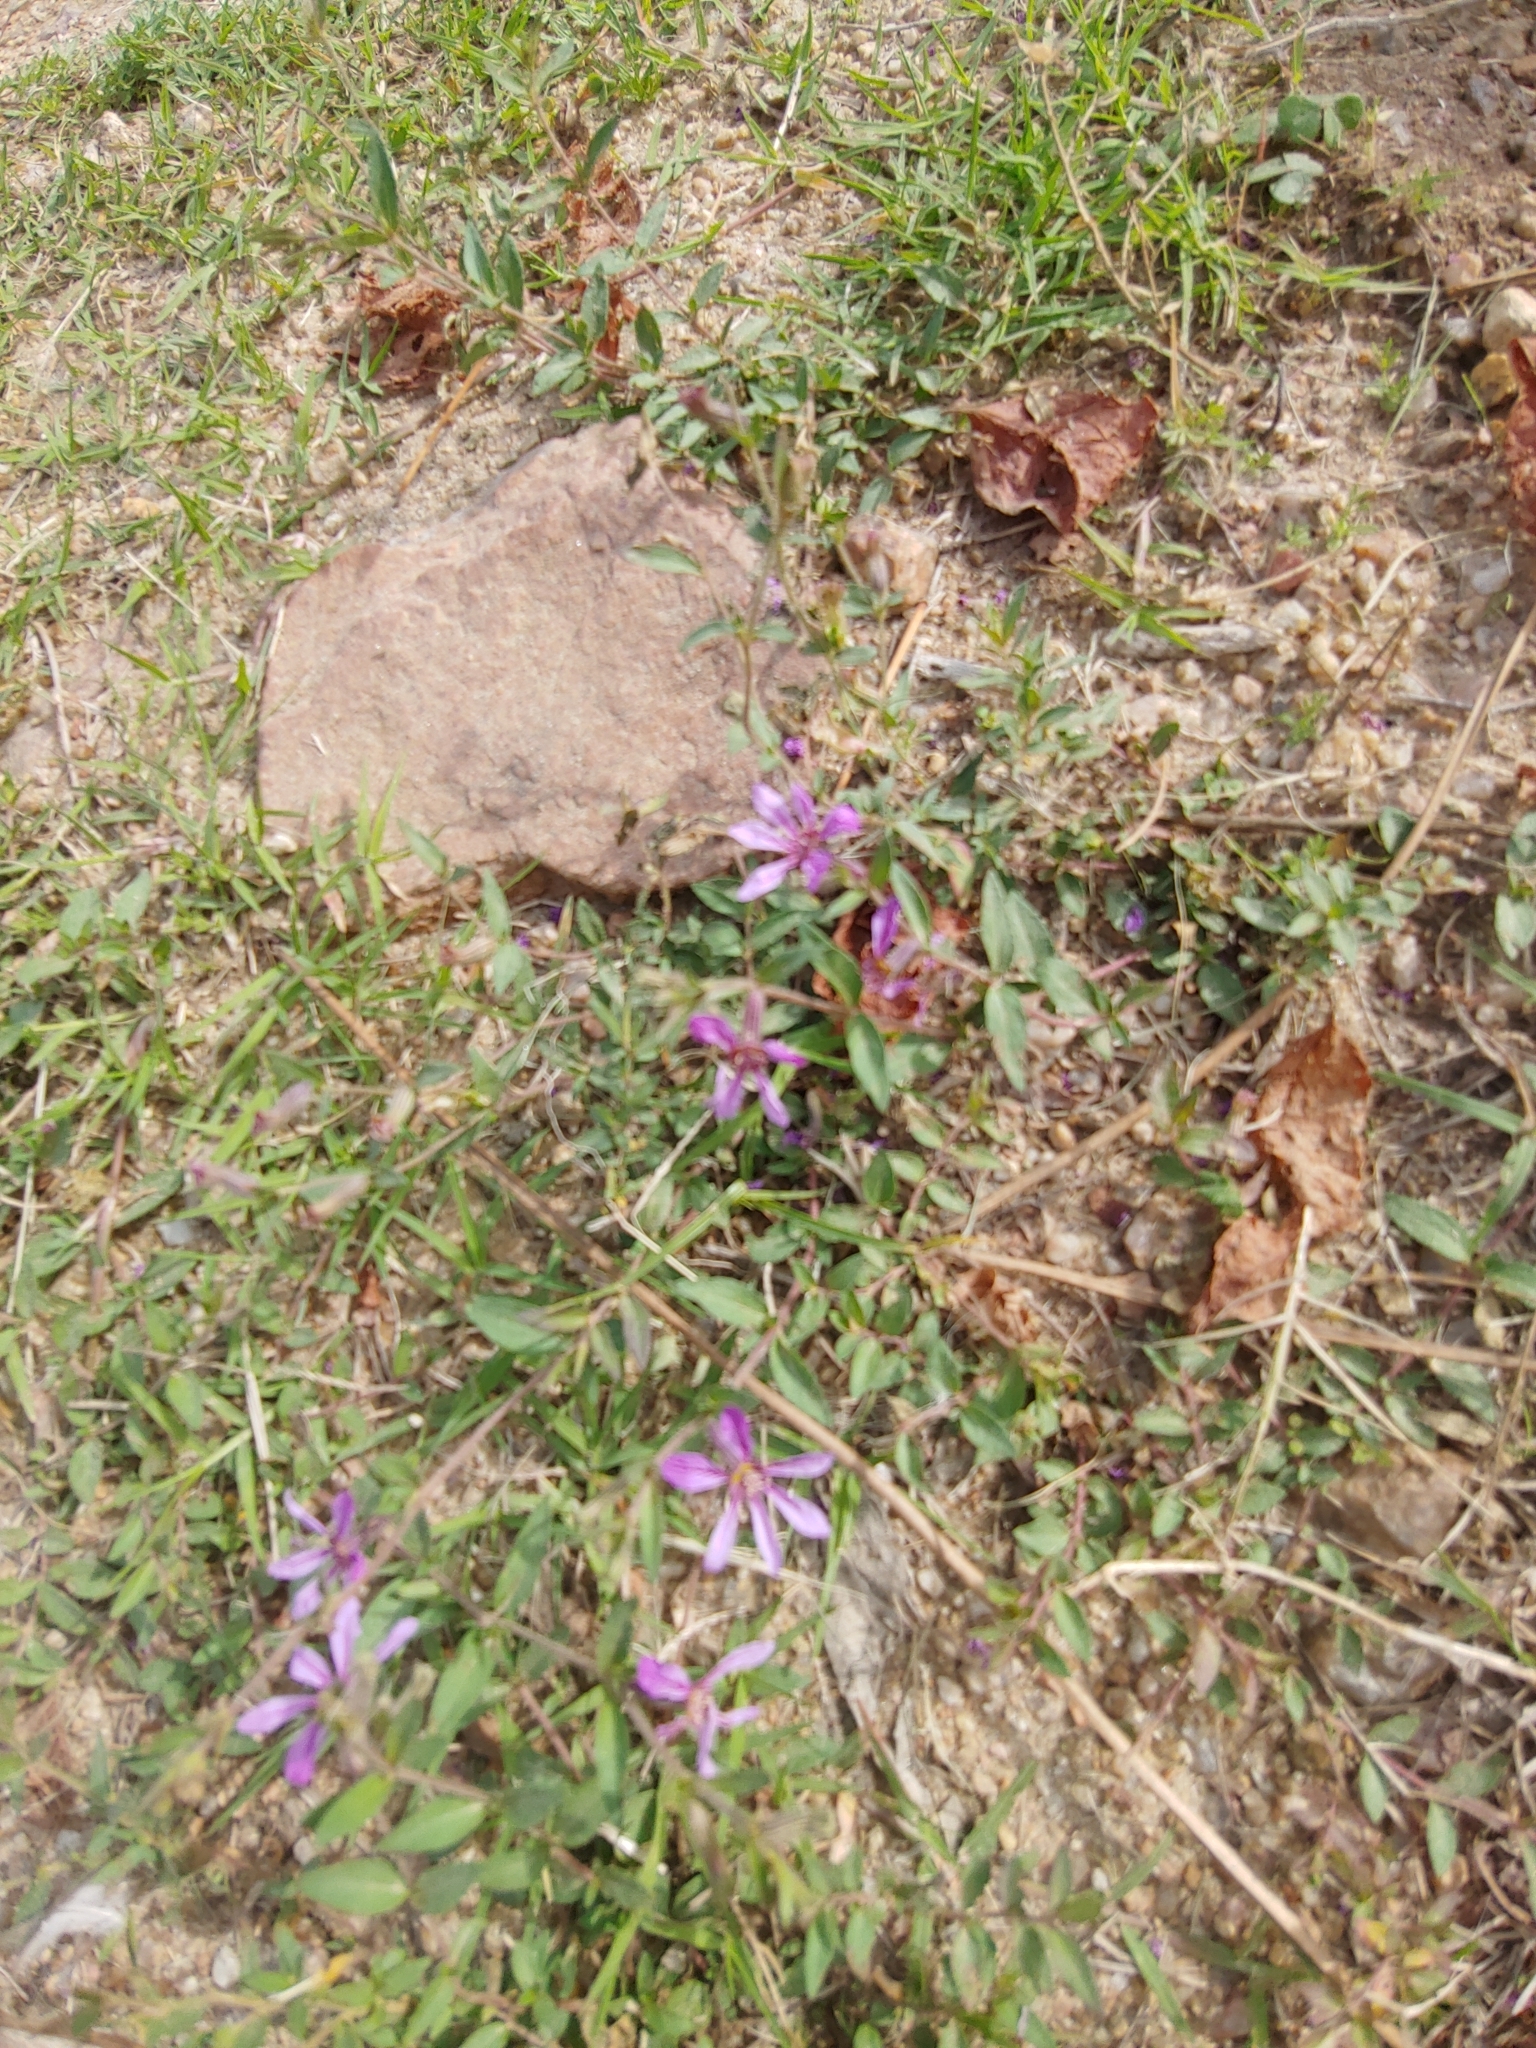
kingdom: Plantae
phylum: Tracheophyta
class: Magnoliopsida
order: Myrtales
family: Lythraceae
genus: Cuphea
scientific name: Cuphea glutinosa
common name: Sticky waxweed
